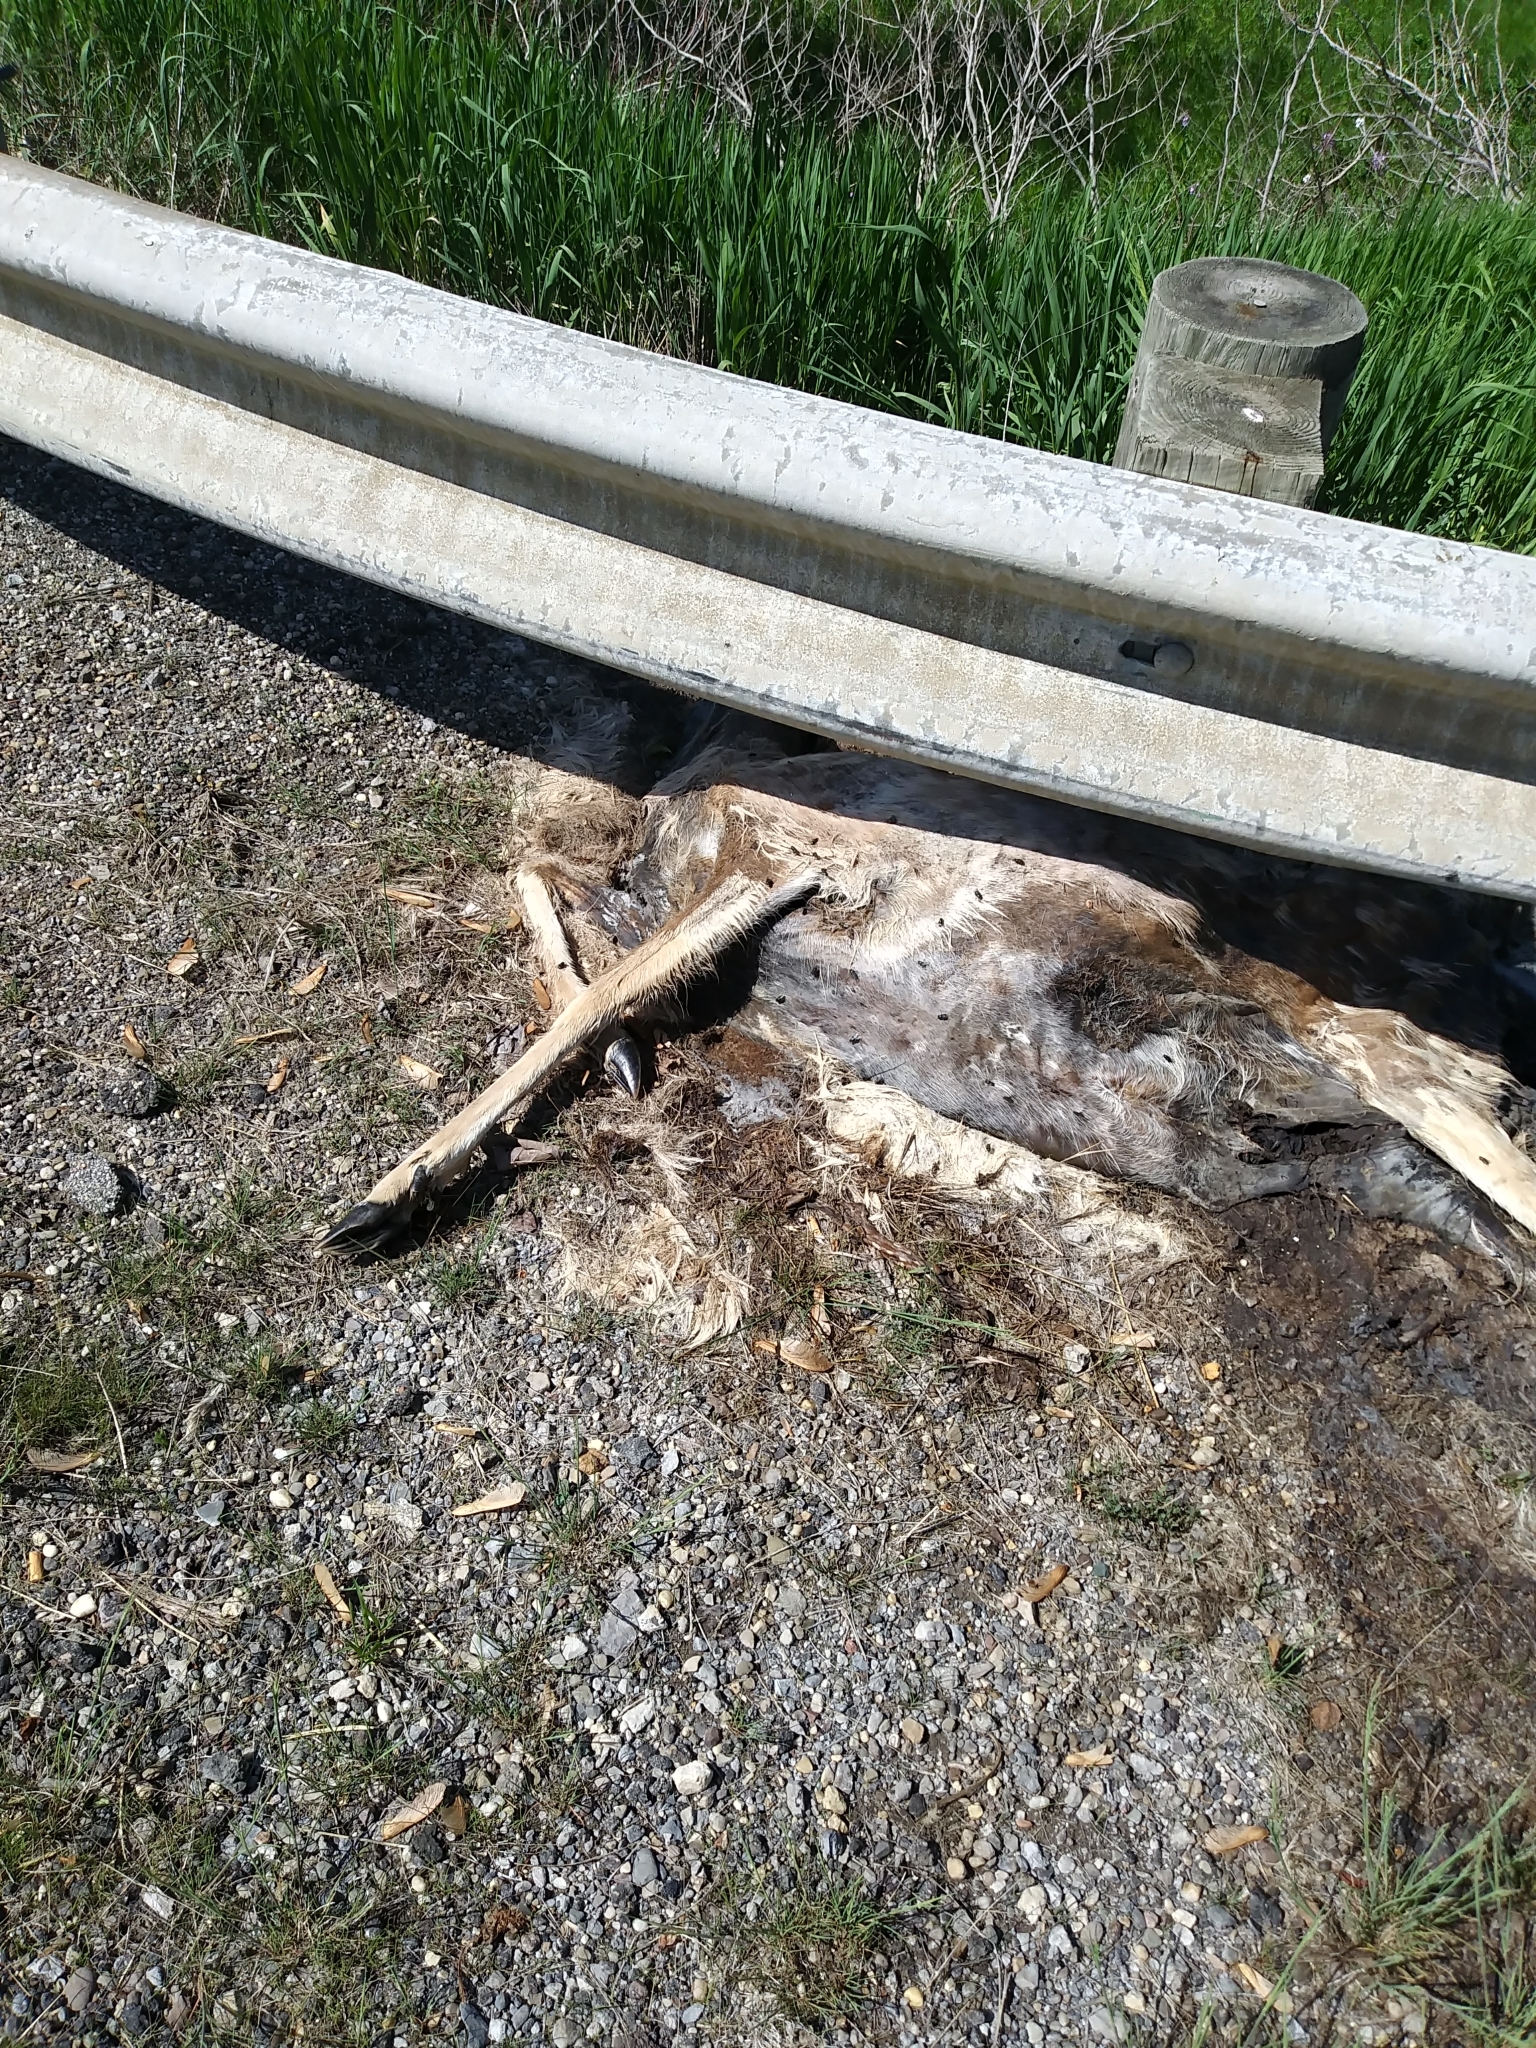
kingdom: Animalia
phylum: Chordata
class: Mammalia
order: Artiodactyla
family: Cervidae
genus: Odocoileus
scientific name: Odocoileus virginianus
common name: White-tailed deer
